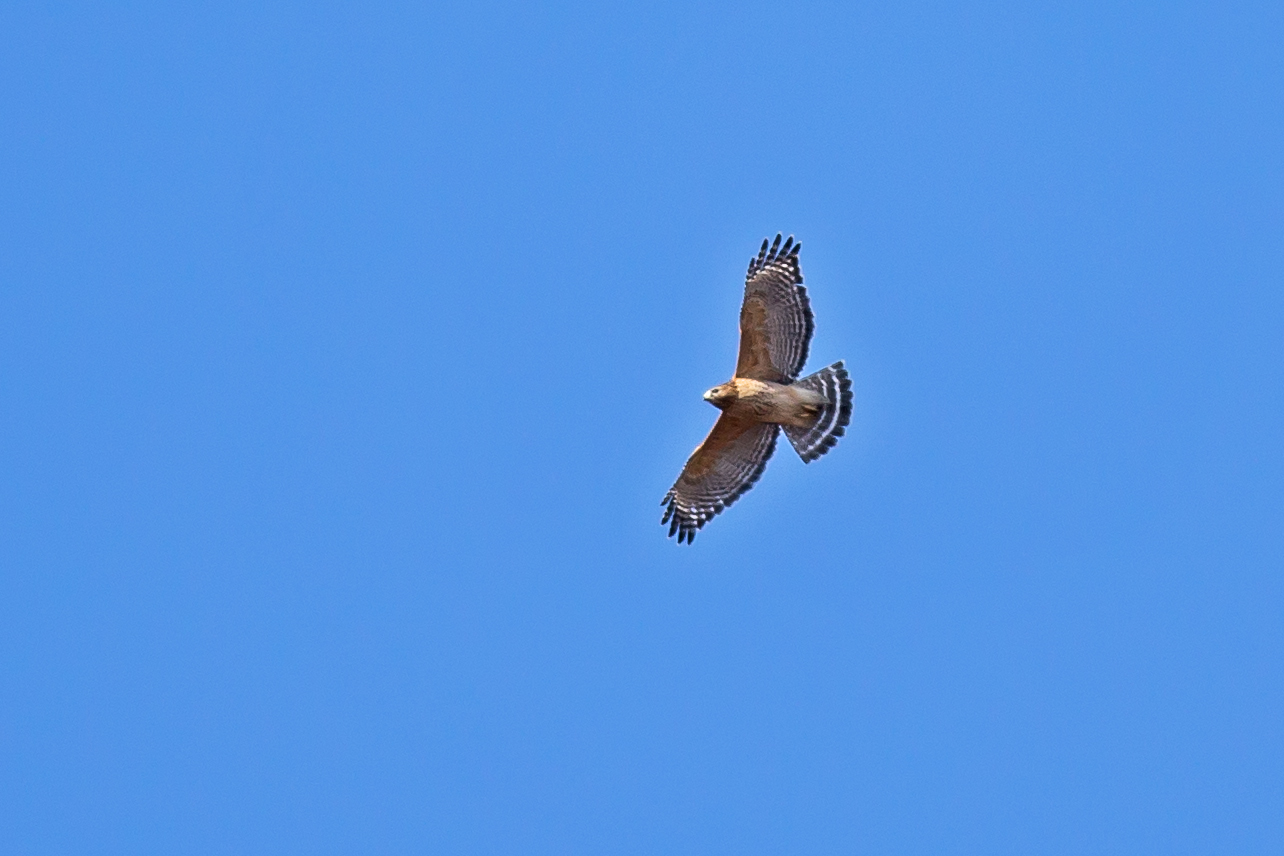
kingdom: Animalia
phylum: Chordata
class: Aves
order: Accipitriformes
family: Accipitridae
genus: Buteo
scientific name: Buteo lineatus
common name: Red-shouldered hawk
